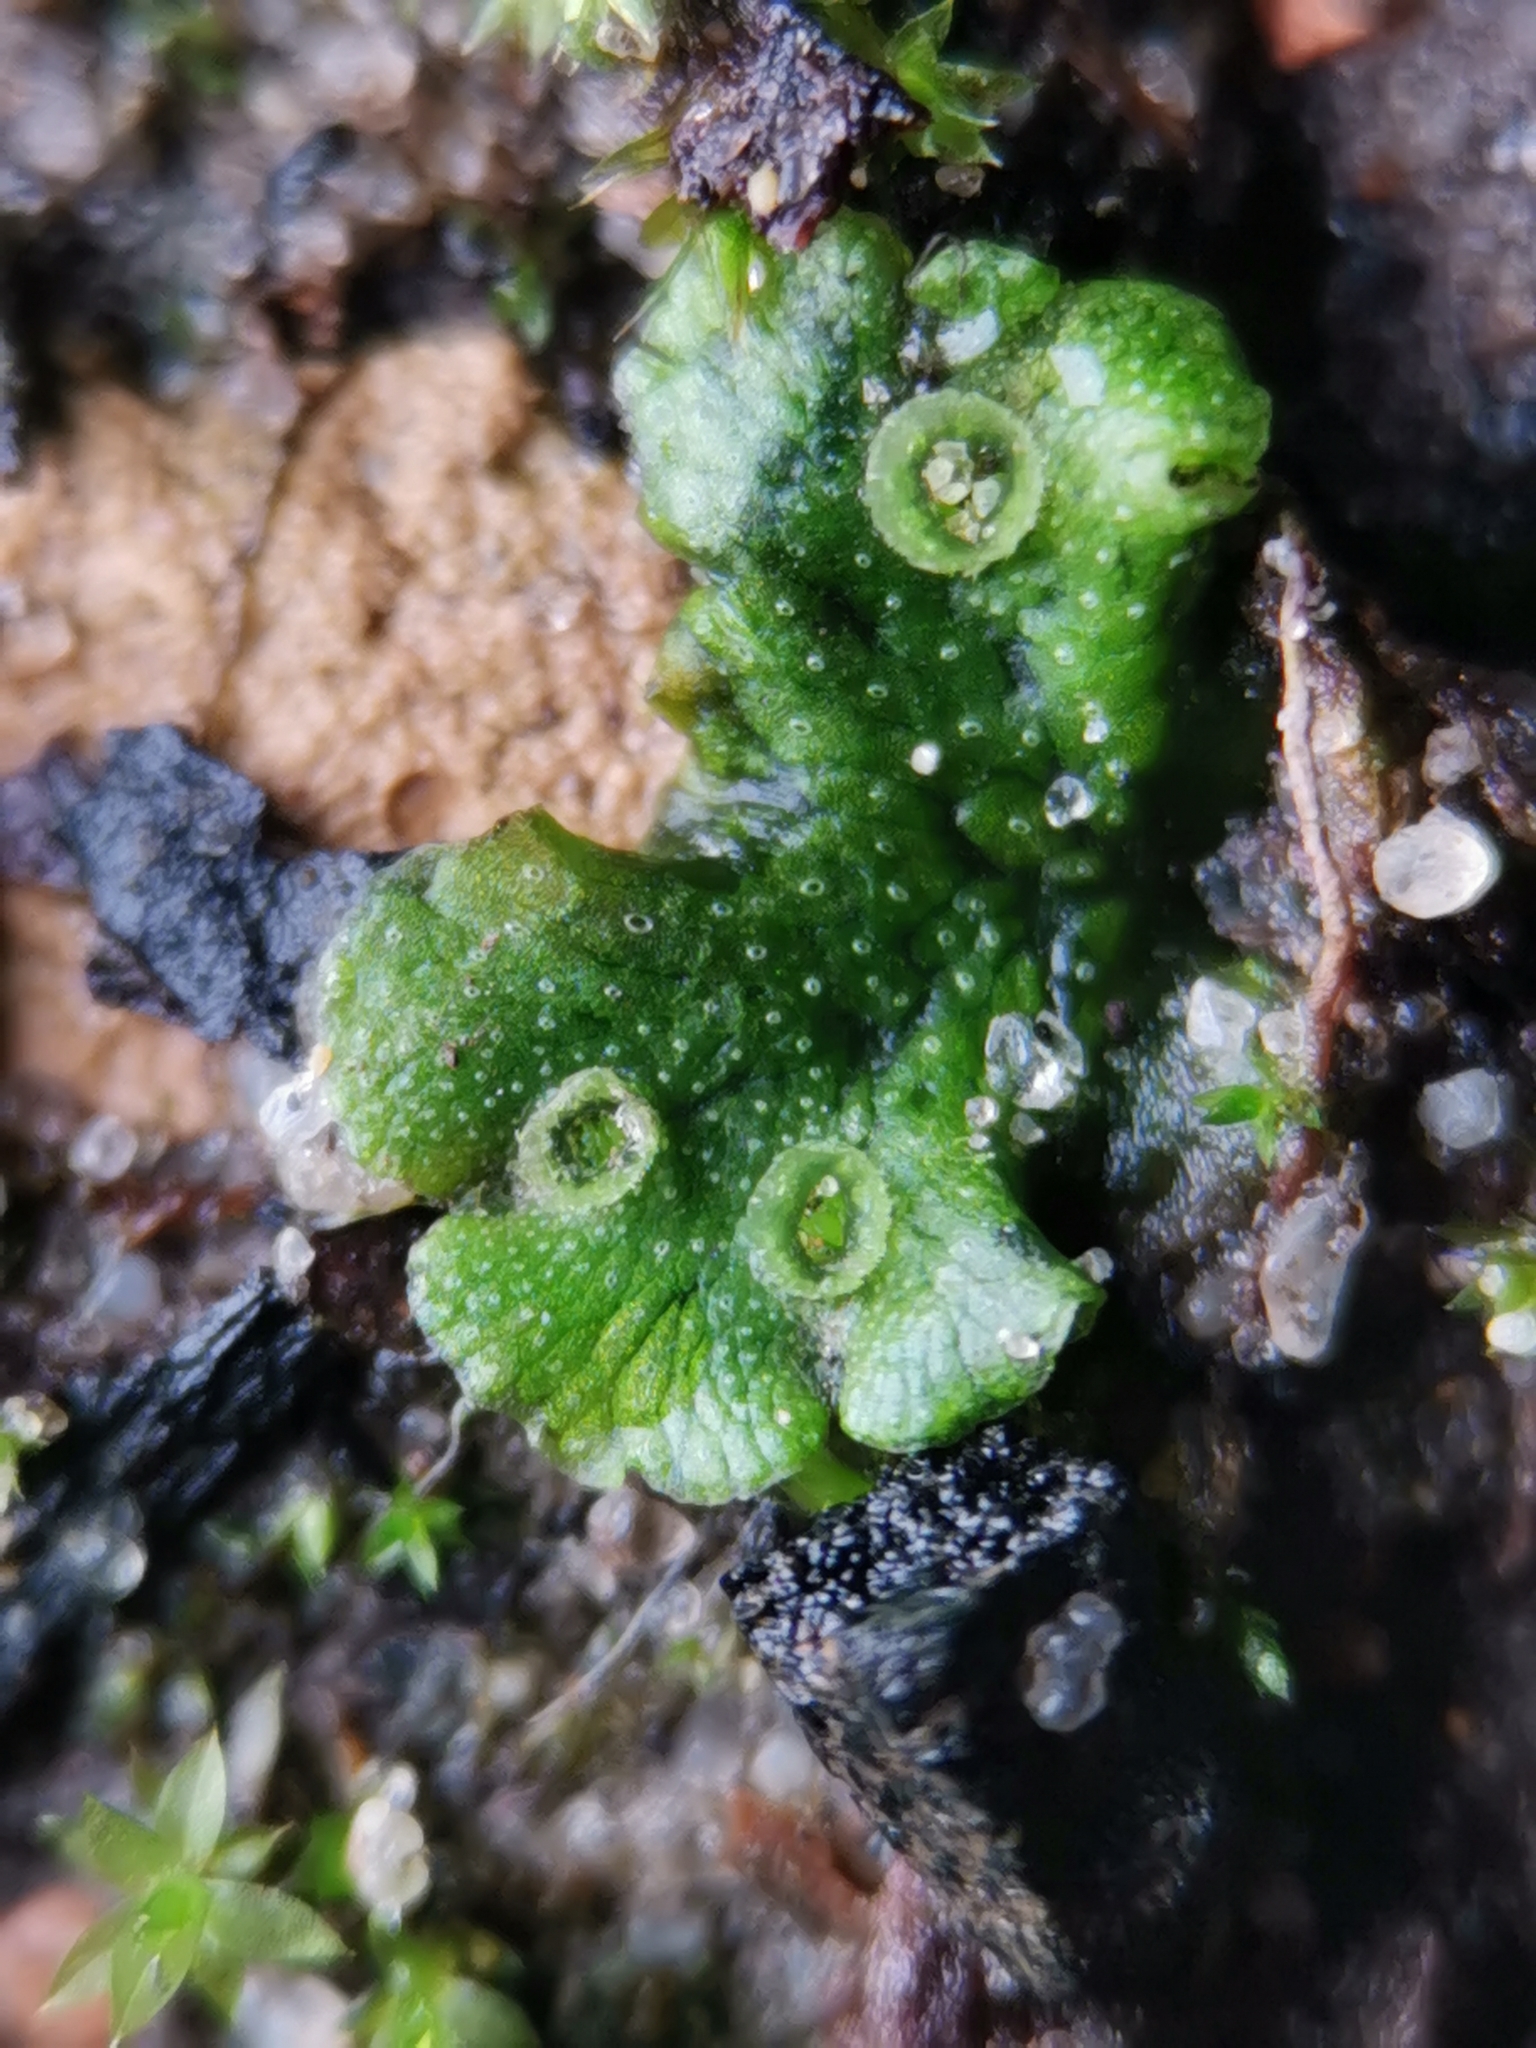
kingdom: Plantae
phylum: Marchantiophyta
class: Marchantiopsida
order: Marchantiales
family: Marchantiaceae
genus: Marchantia
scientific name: Marchantia polymorpha
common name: Common liverwort
